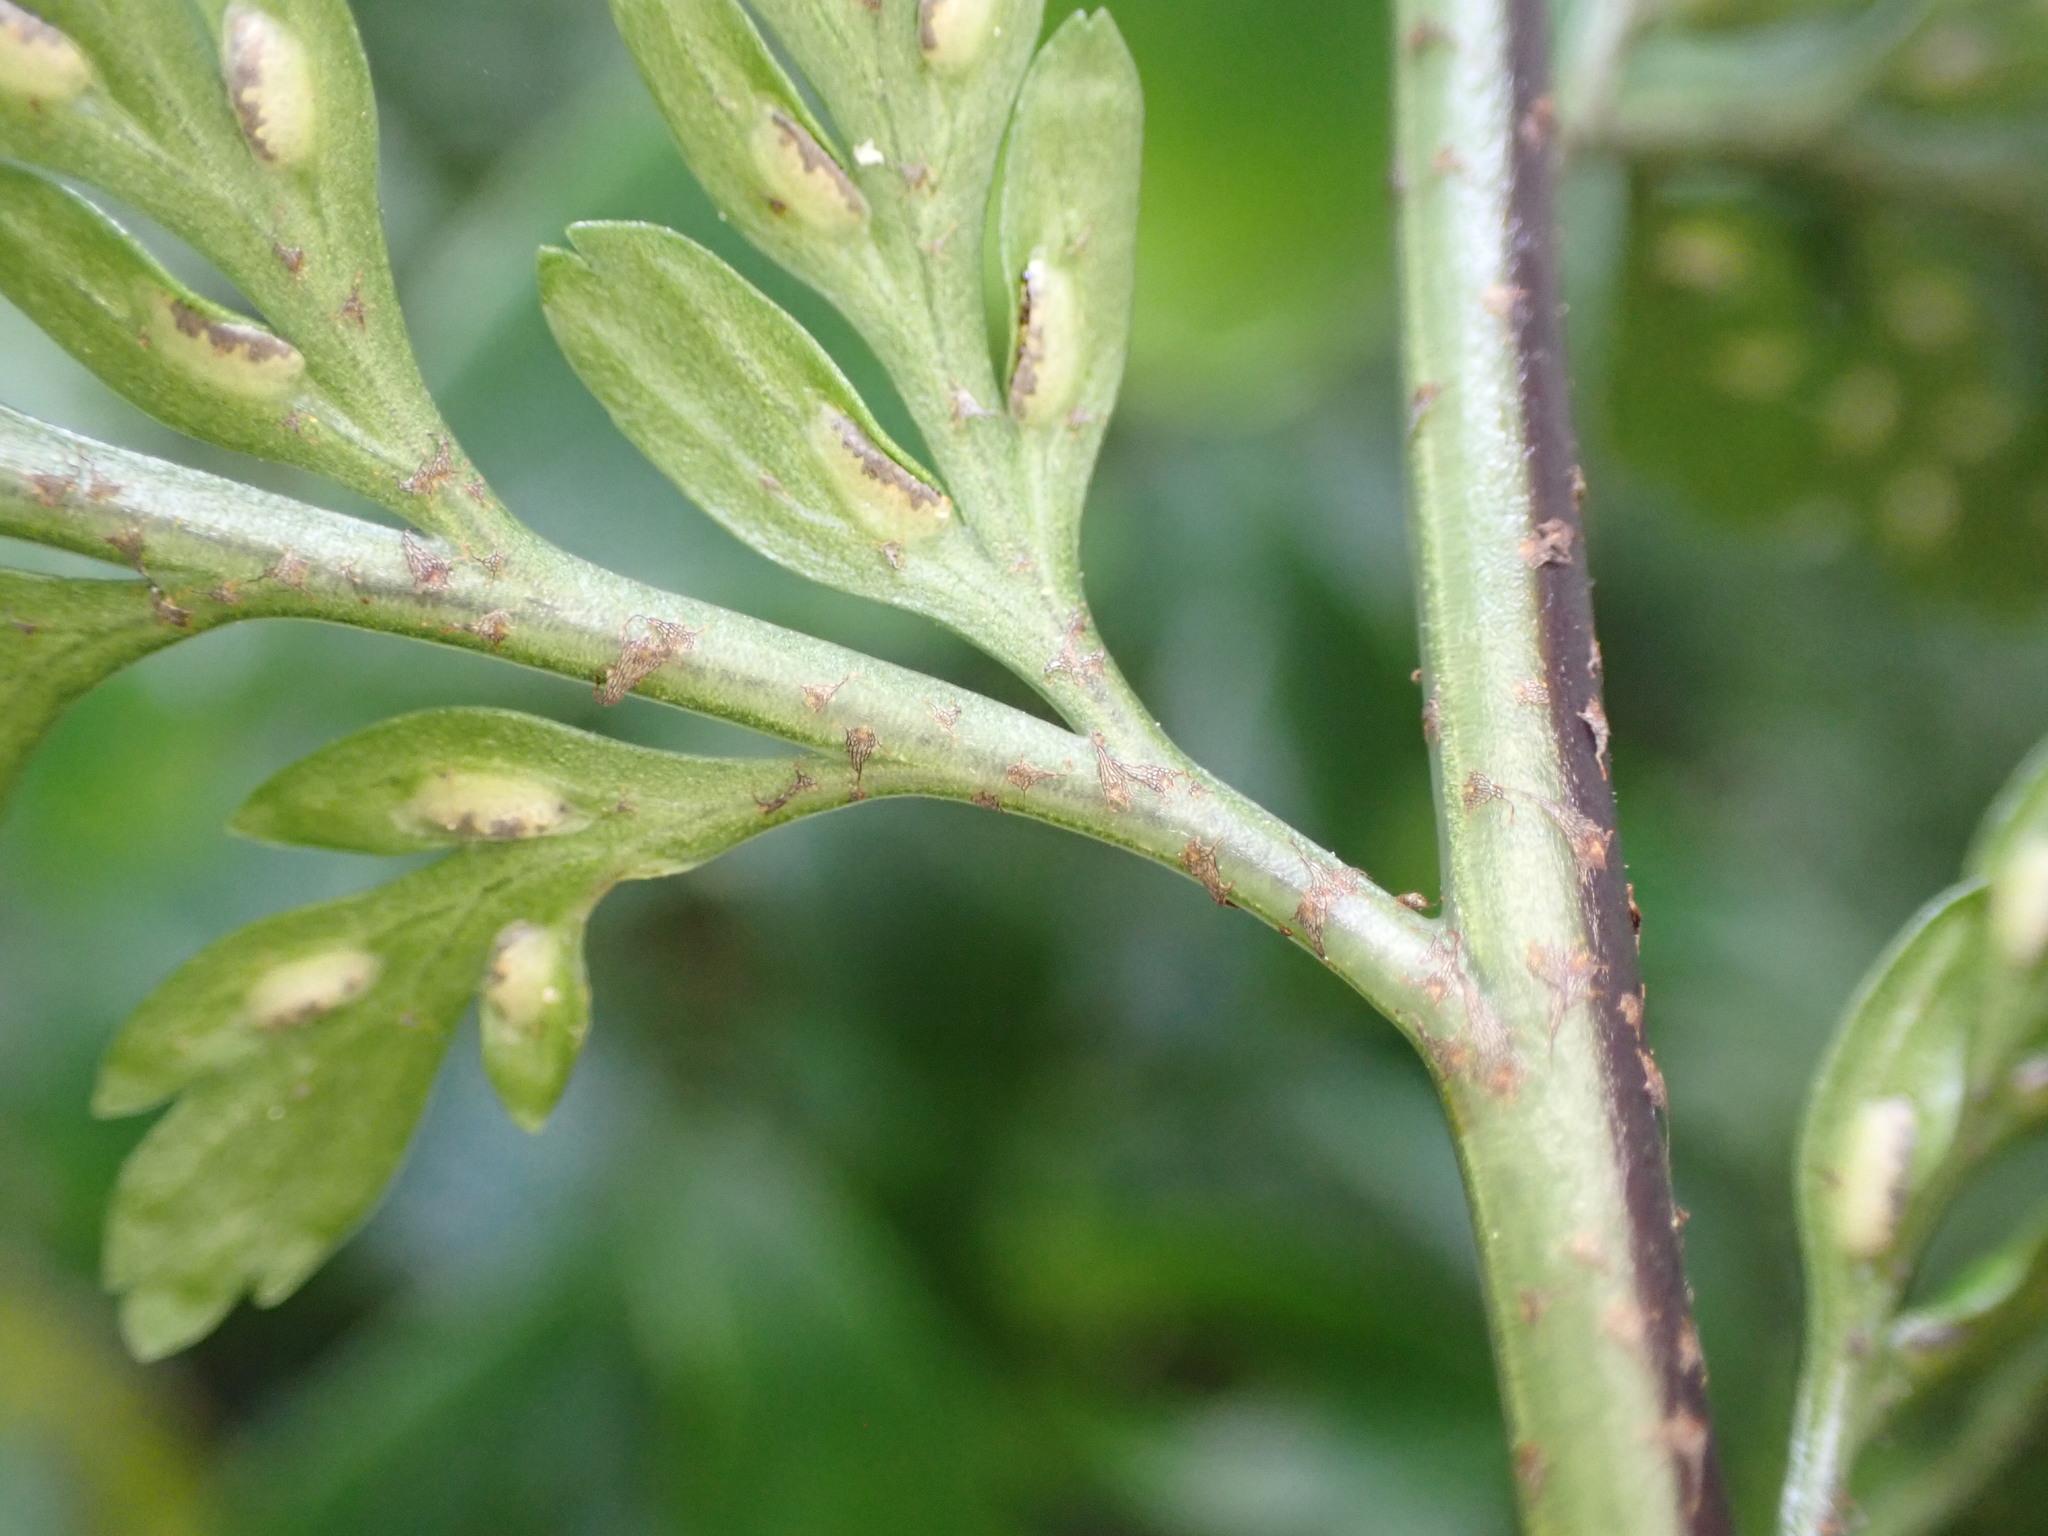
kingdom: Plantae
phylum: Tracheophyta
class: Polypodiopsida
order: Polypodiales
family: Aspleniaceae
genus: Asplenium
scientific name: Asplenium
